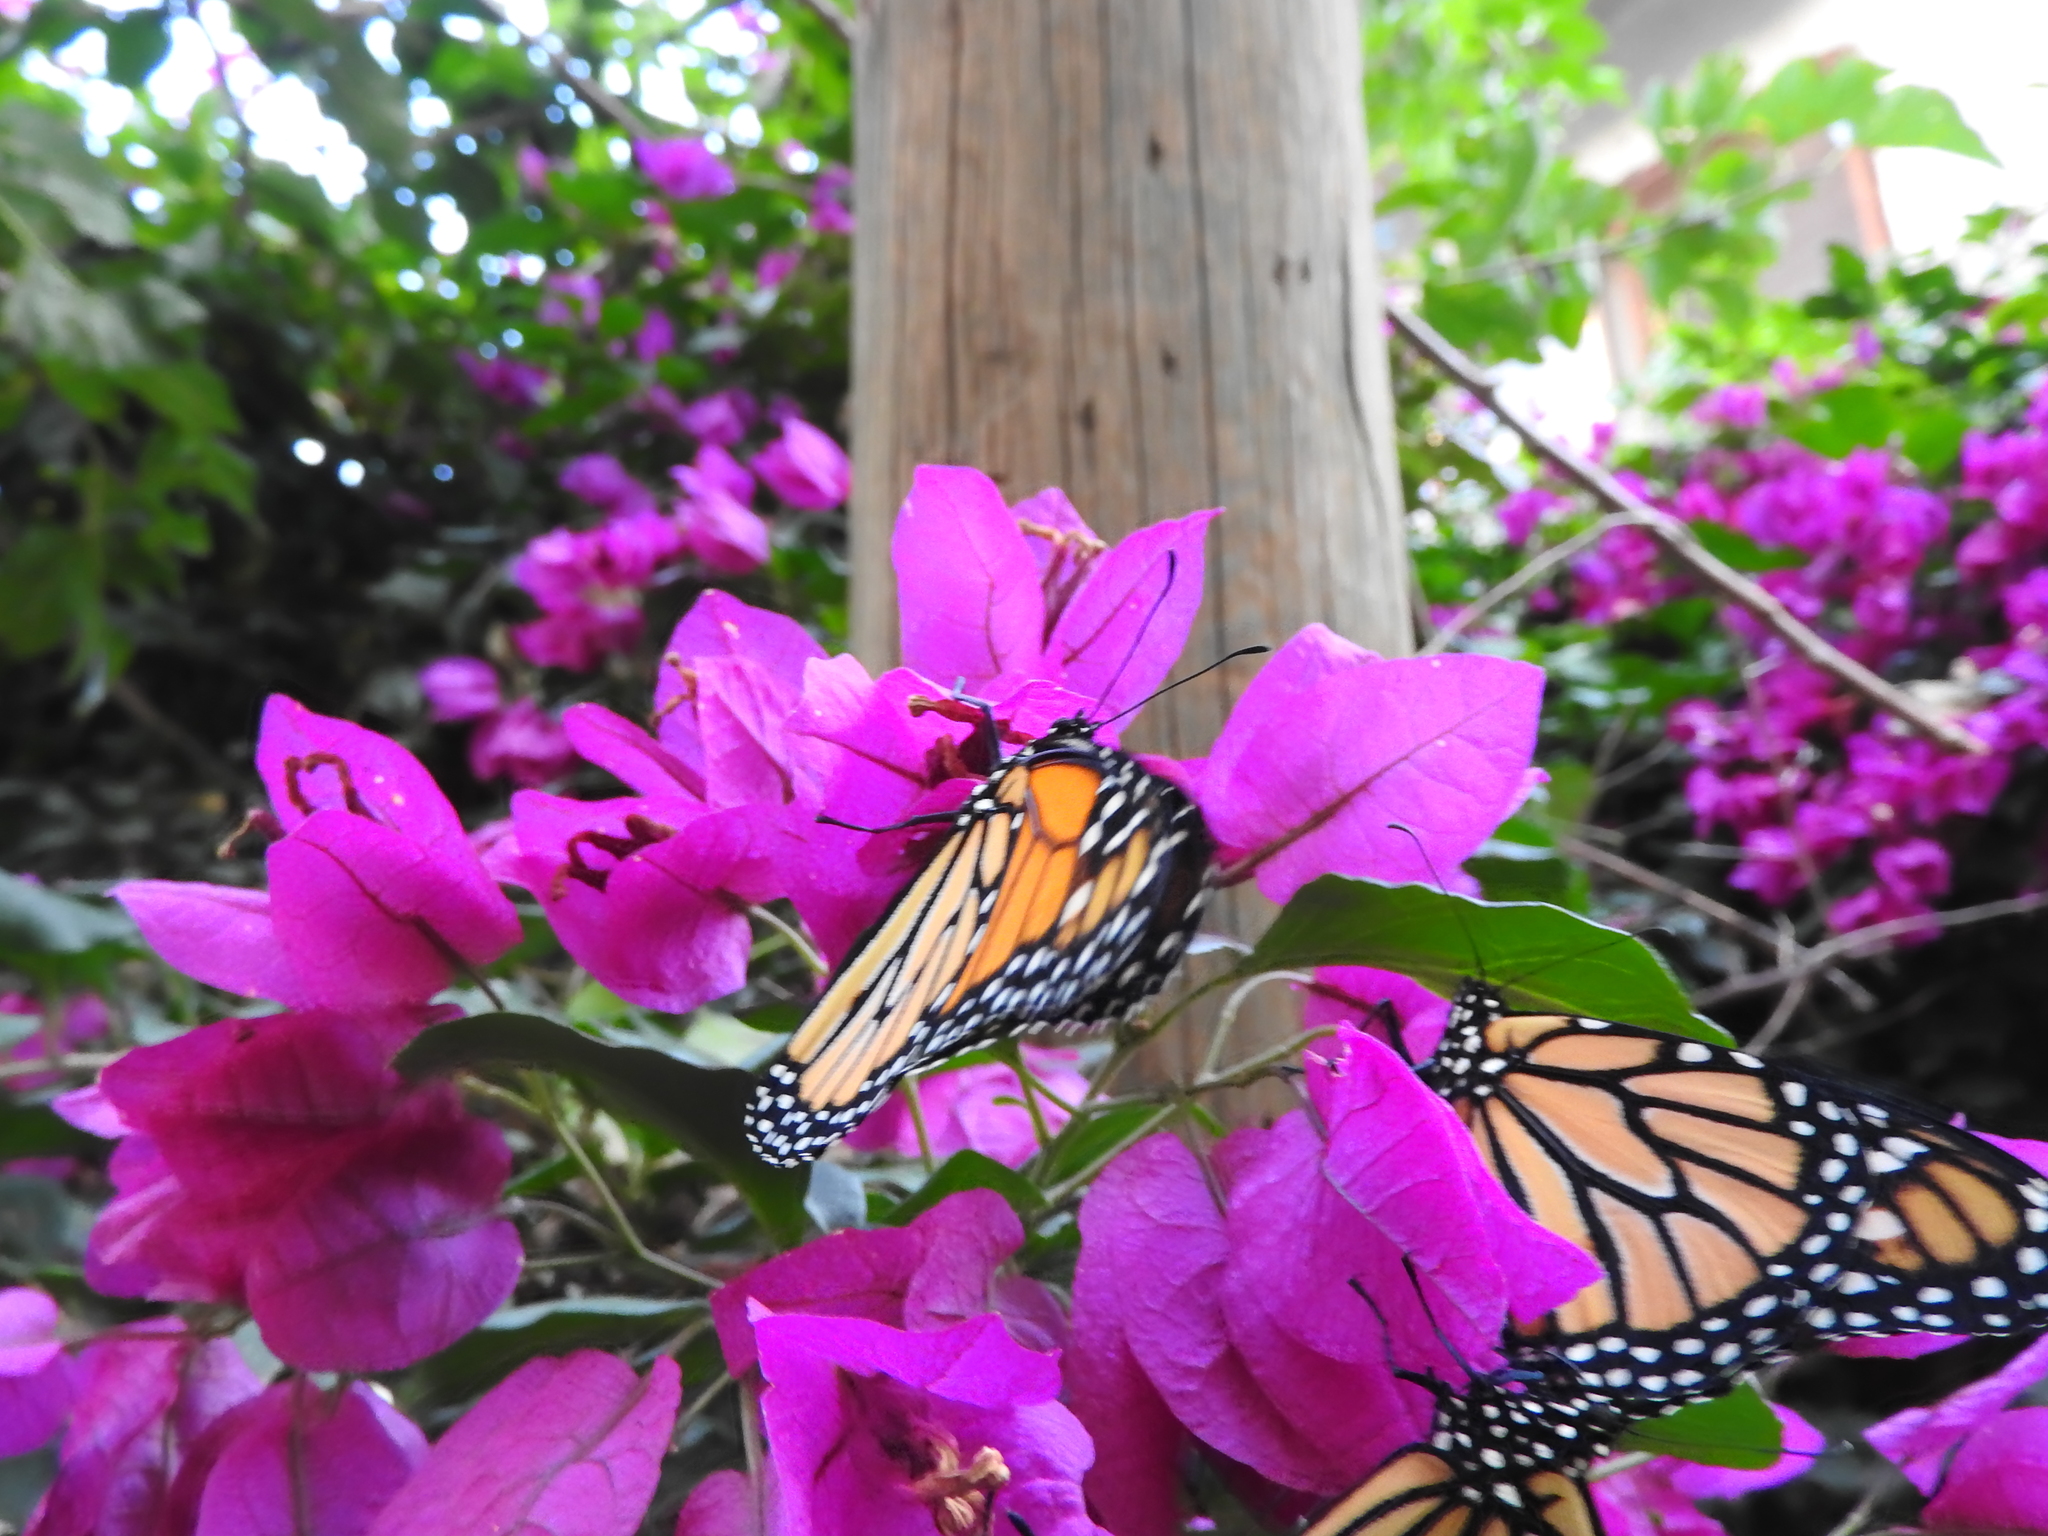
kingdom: Animalia
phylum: Arthropoda
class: Insecta
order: Lepidoptera
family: Nymphalidae
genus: Danaus
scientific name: Danaus plexippus
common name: Monarch
